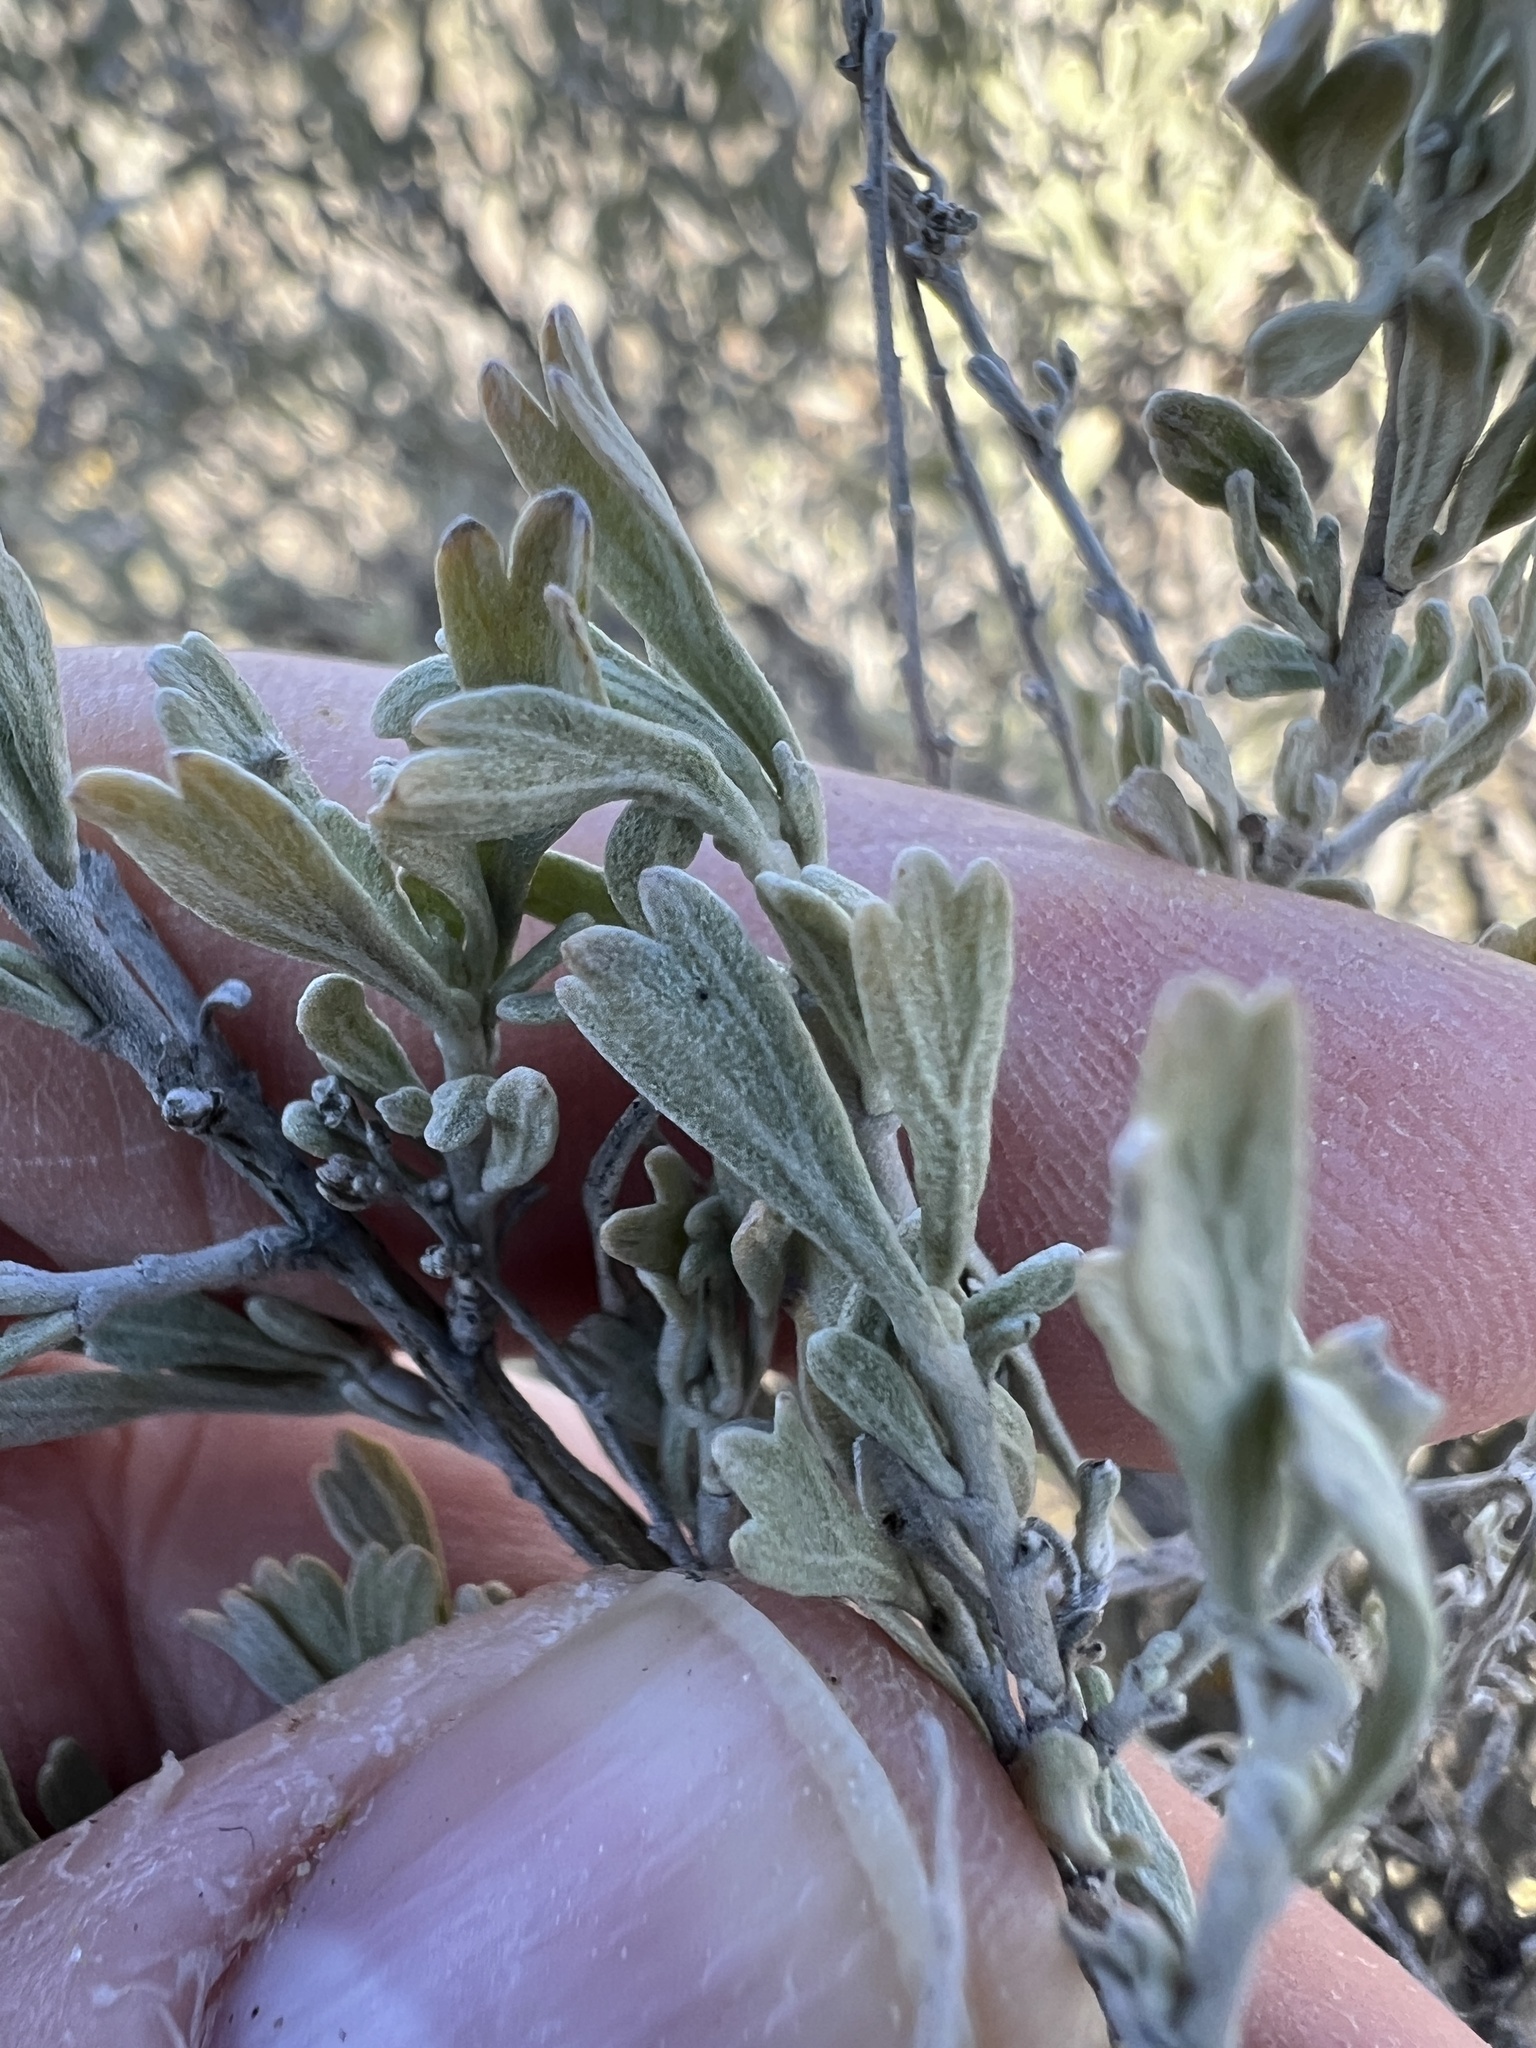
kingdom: Plantae
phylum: Tracheophyta
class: Magnoliopsida
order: Asterales
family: Asteraceae
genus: Artemisia
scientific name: Artemisia tridentata
